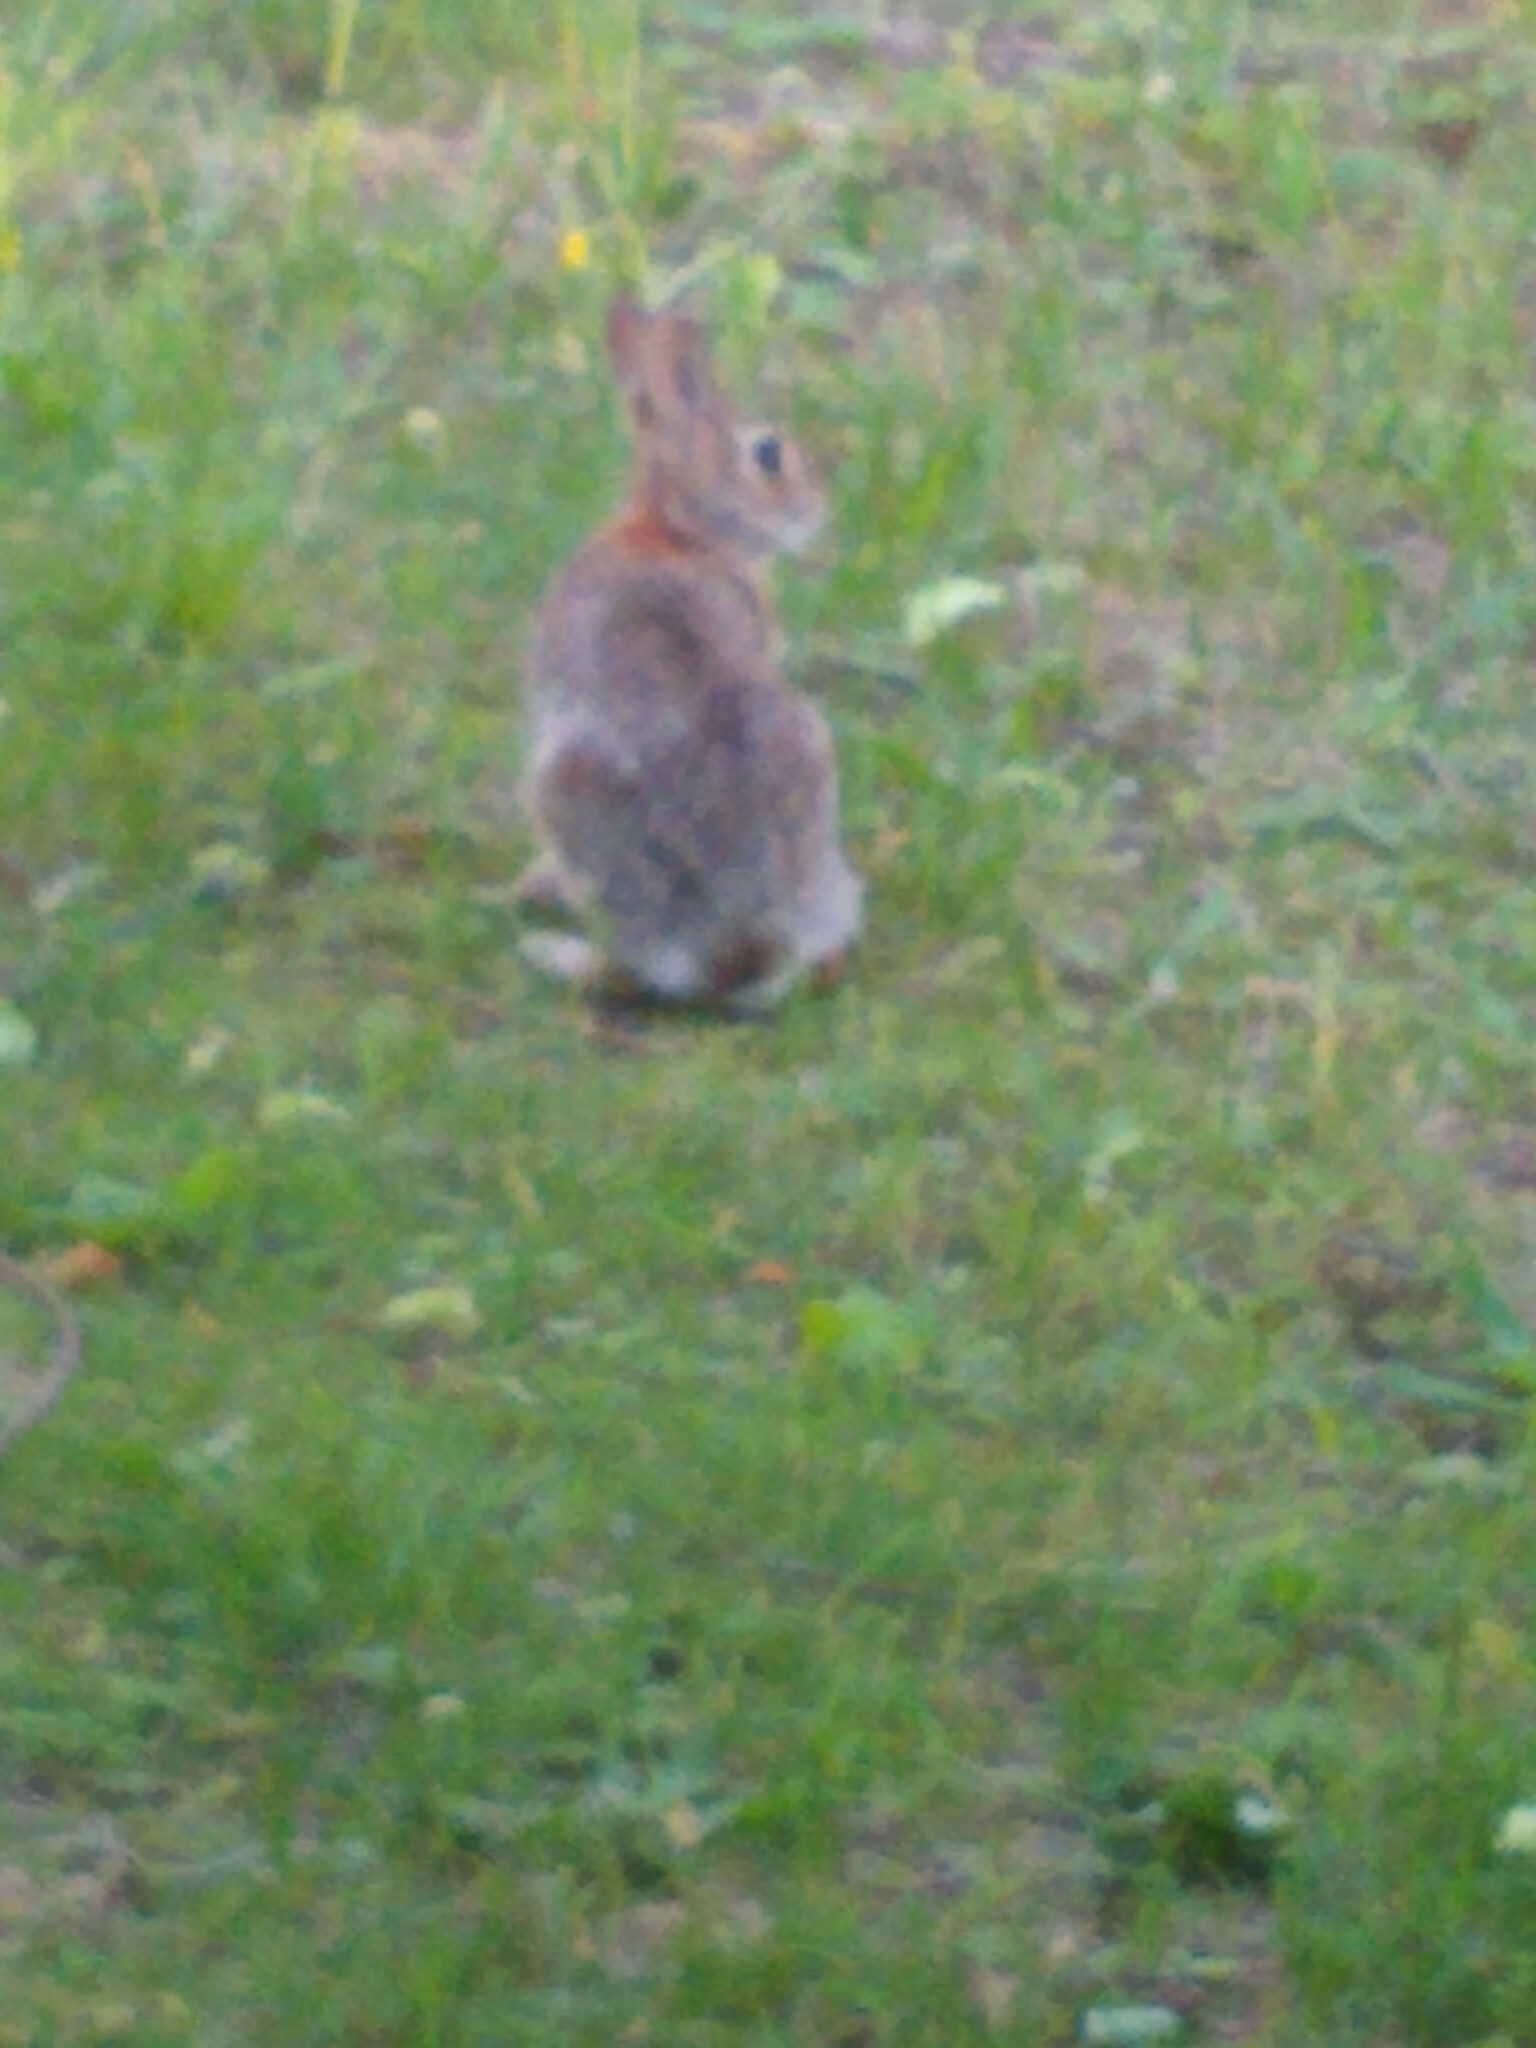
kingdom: Animalia
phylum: Chordata
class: Mammalia
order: Lagomorpha
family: Leporidae
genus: Sylvilagus
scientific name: Sylvilagus floridanus
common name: Eastern cottontail
